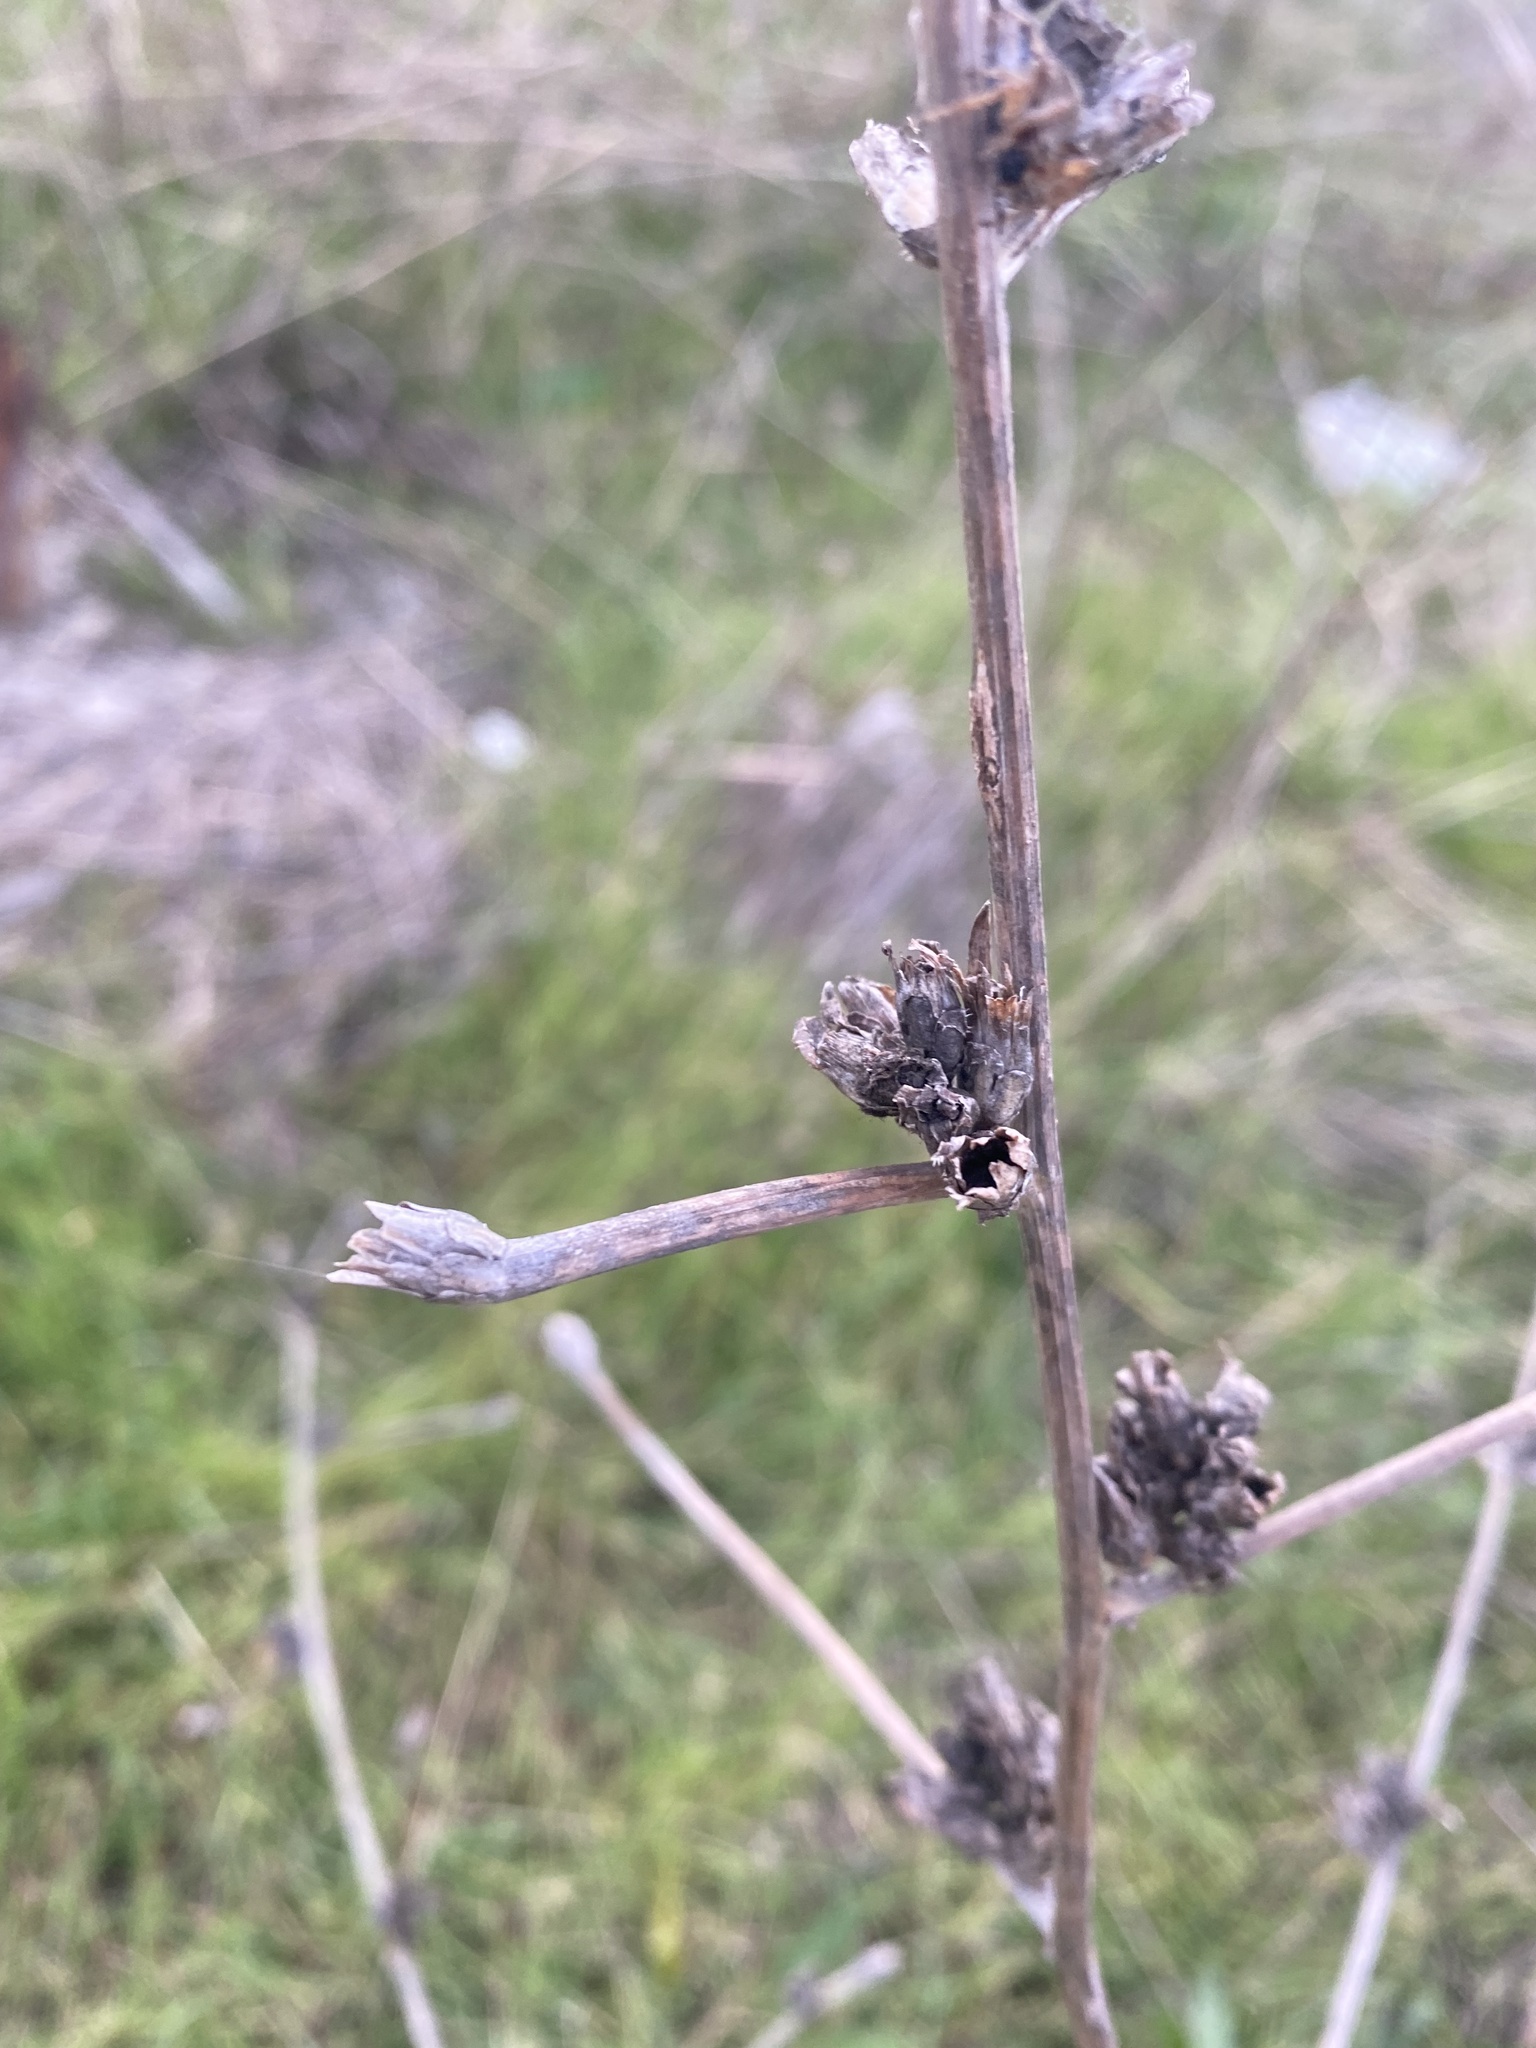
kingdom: Plantae
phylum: Tracheophyta
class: Magnoliopsida
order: Asterales
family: Asteraceae
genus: Cichorium
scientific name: Cichorium intybus
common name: Chicory
